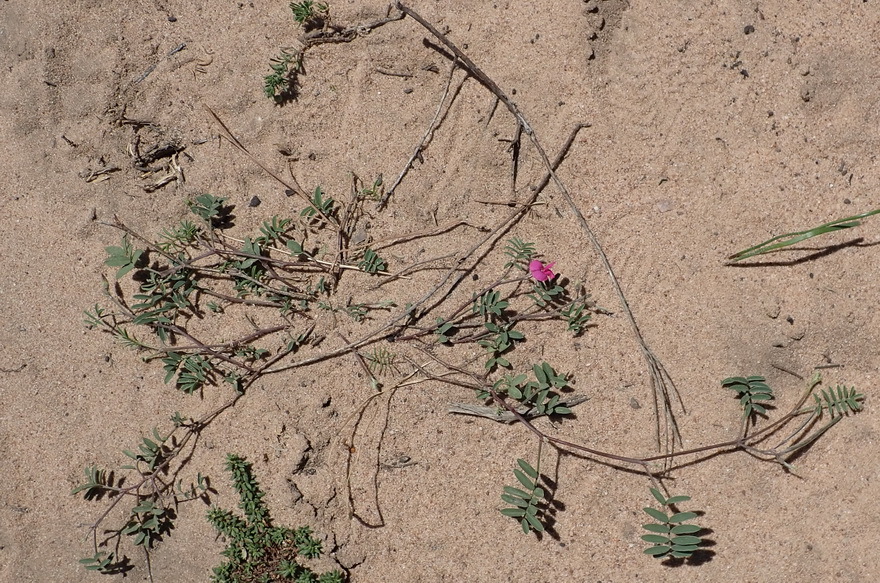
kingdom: Plantae
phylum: Tracheophyta
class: Magnoliopsida
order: Fabales
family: Fabaceae
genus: Tephrosia
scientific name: Tephrosia capensis
